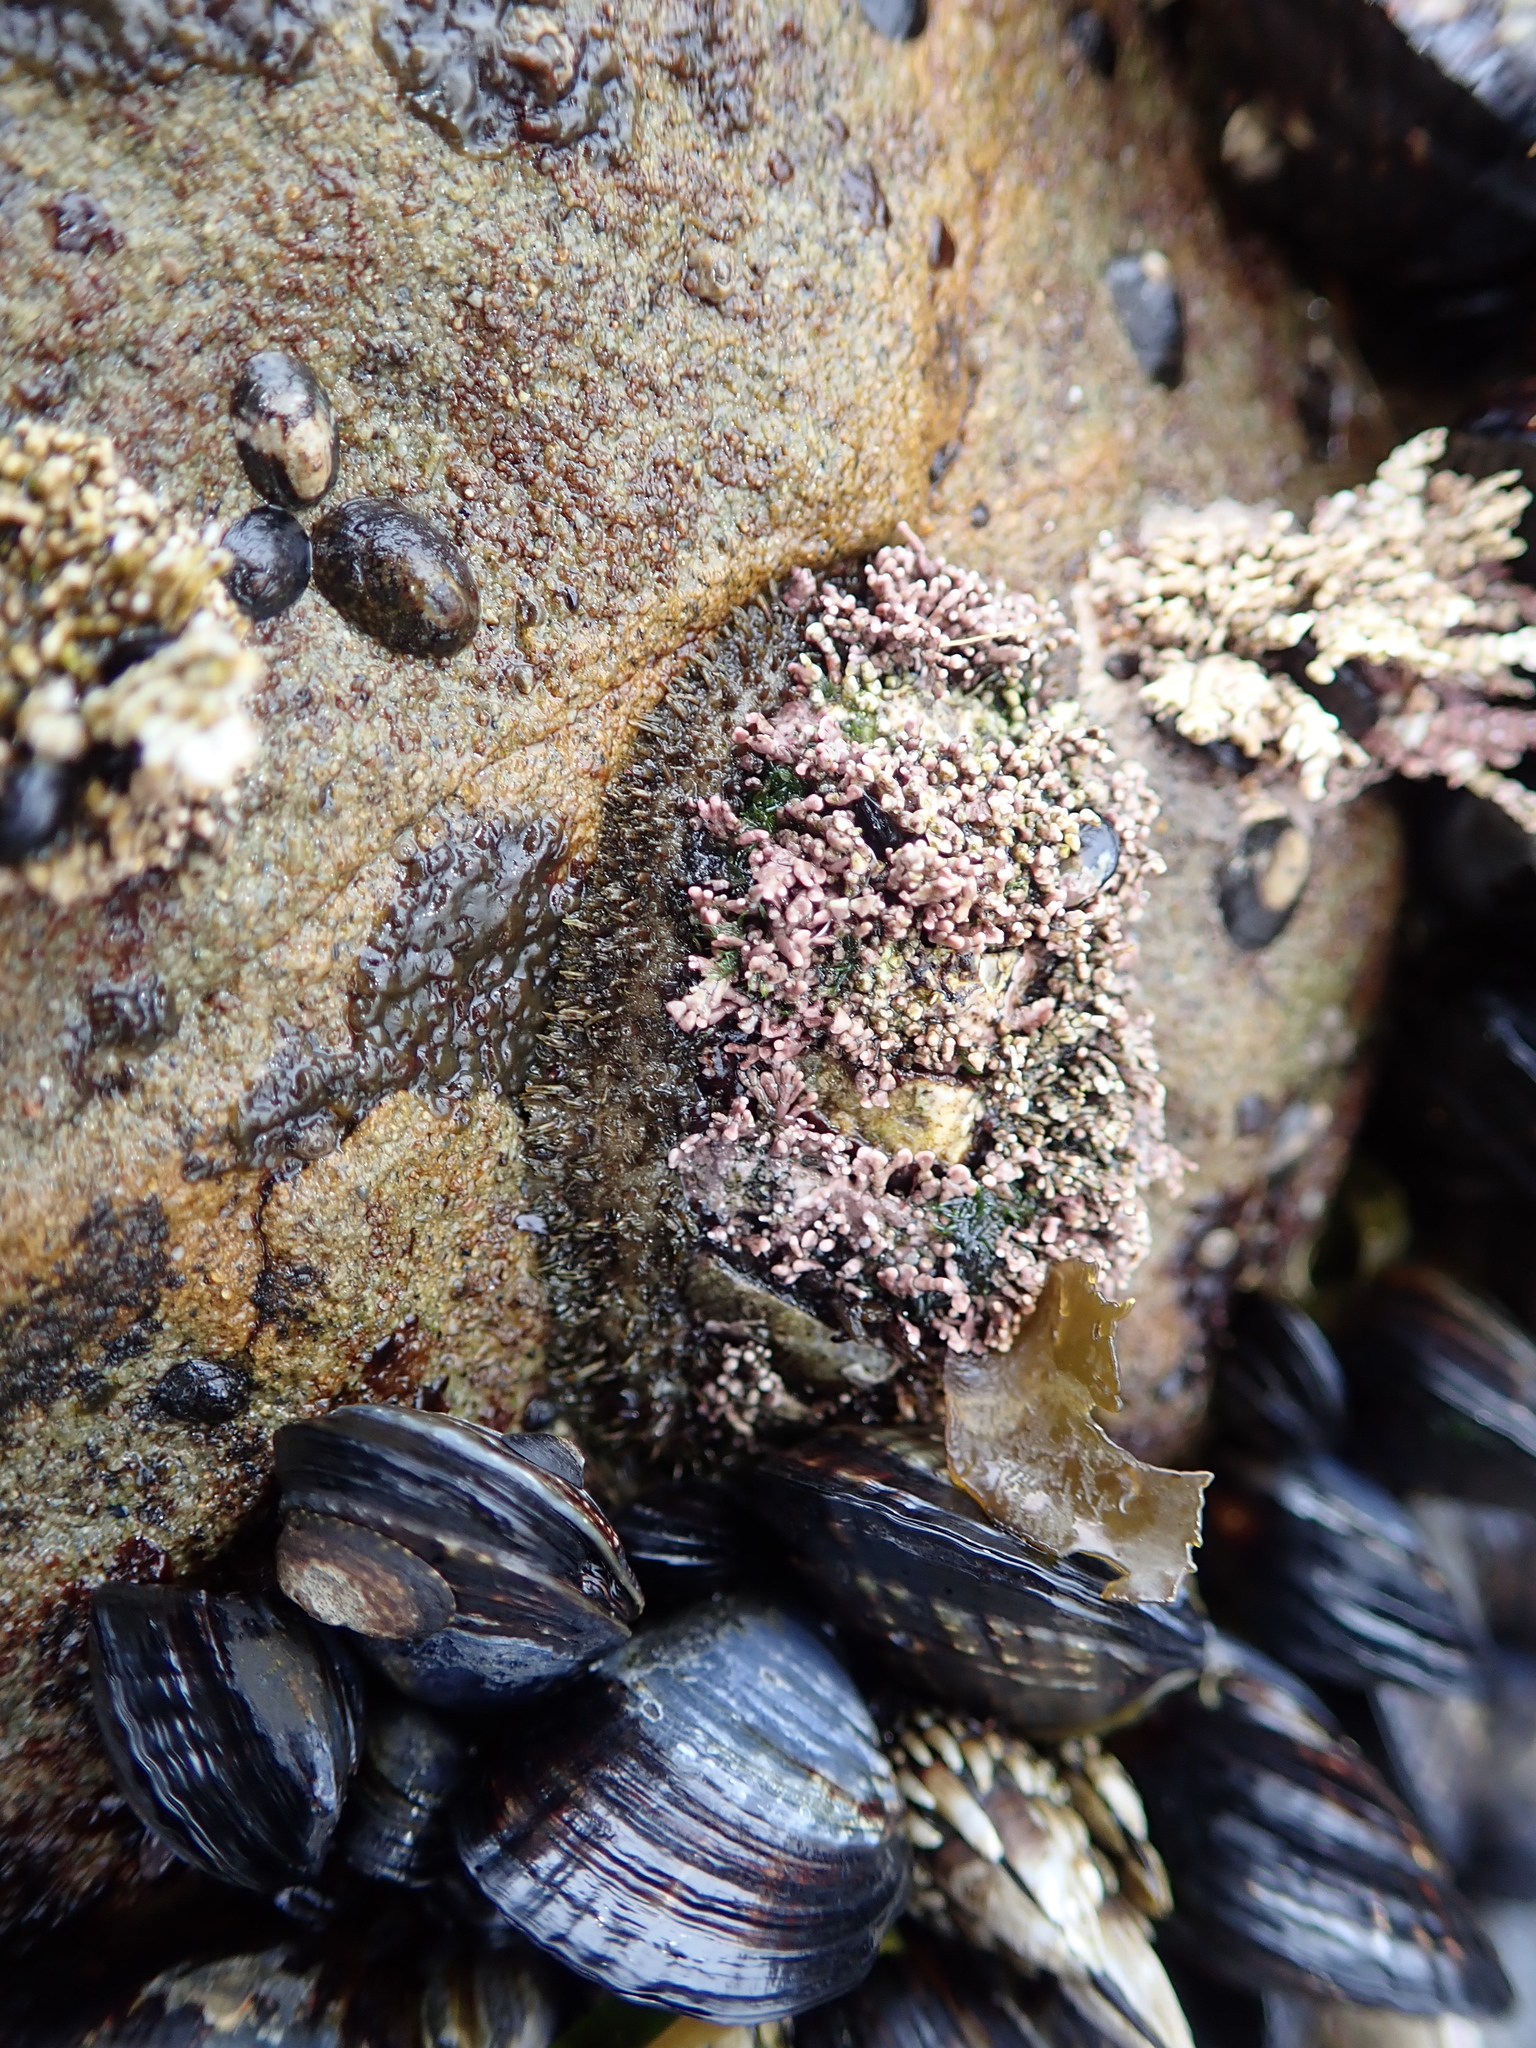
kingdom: Animalia
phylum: Mollusca
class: Polyplacophora
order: Chitonida
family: Mopaliidae
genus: Mopalia
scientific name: Mopalia muscosa
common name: Mossy chiton
